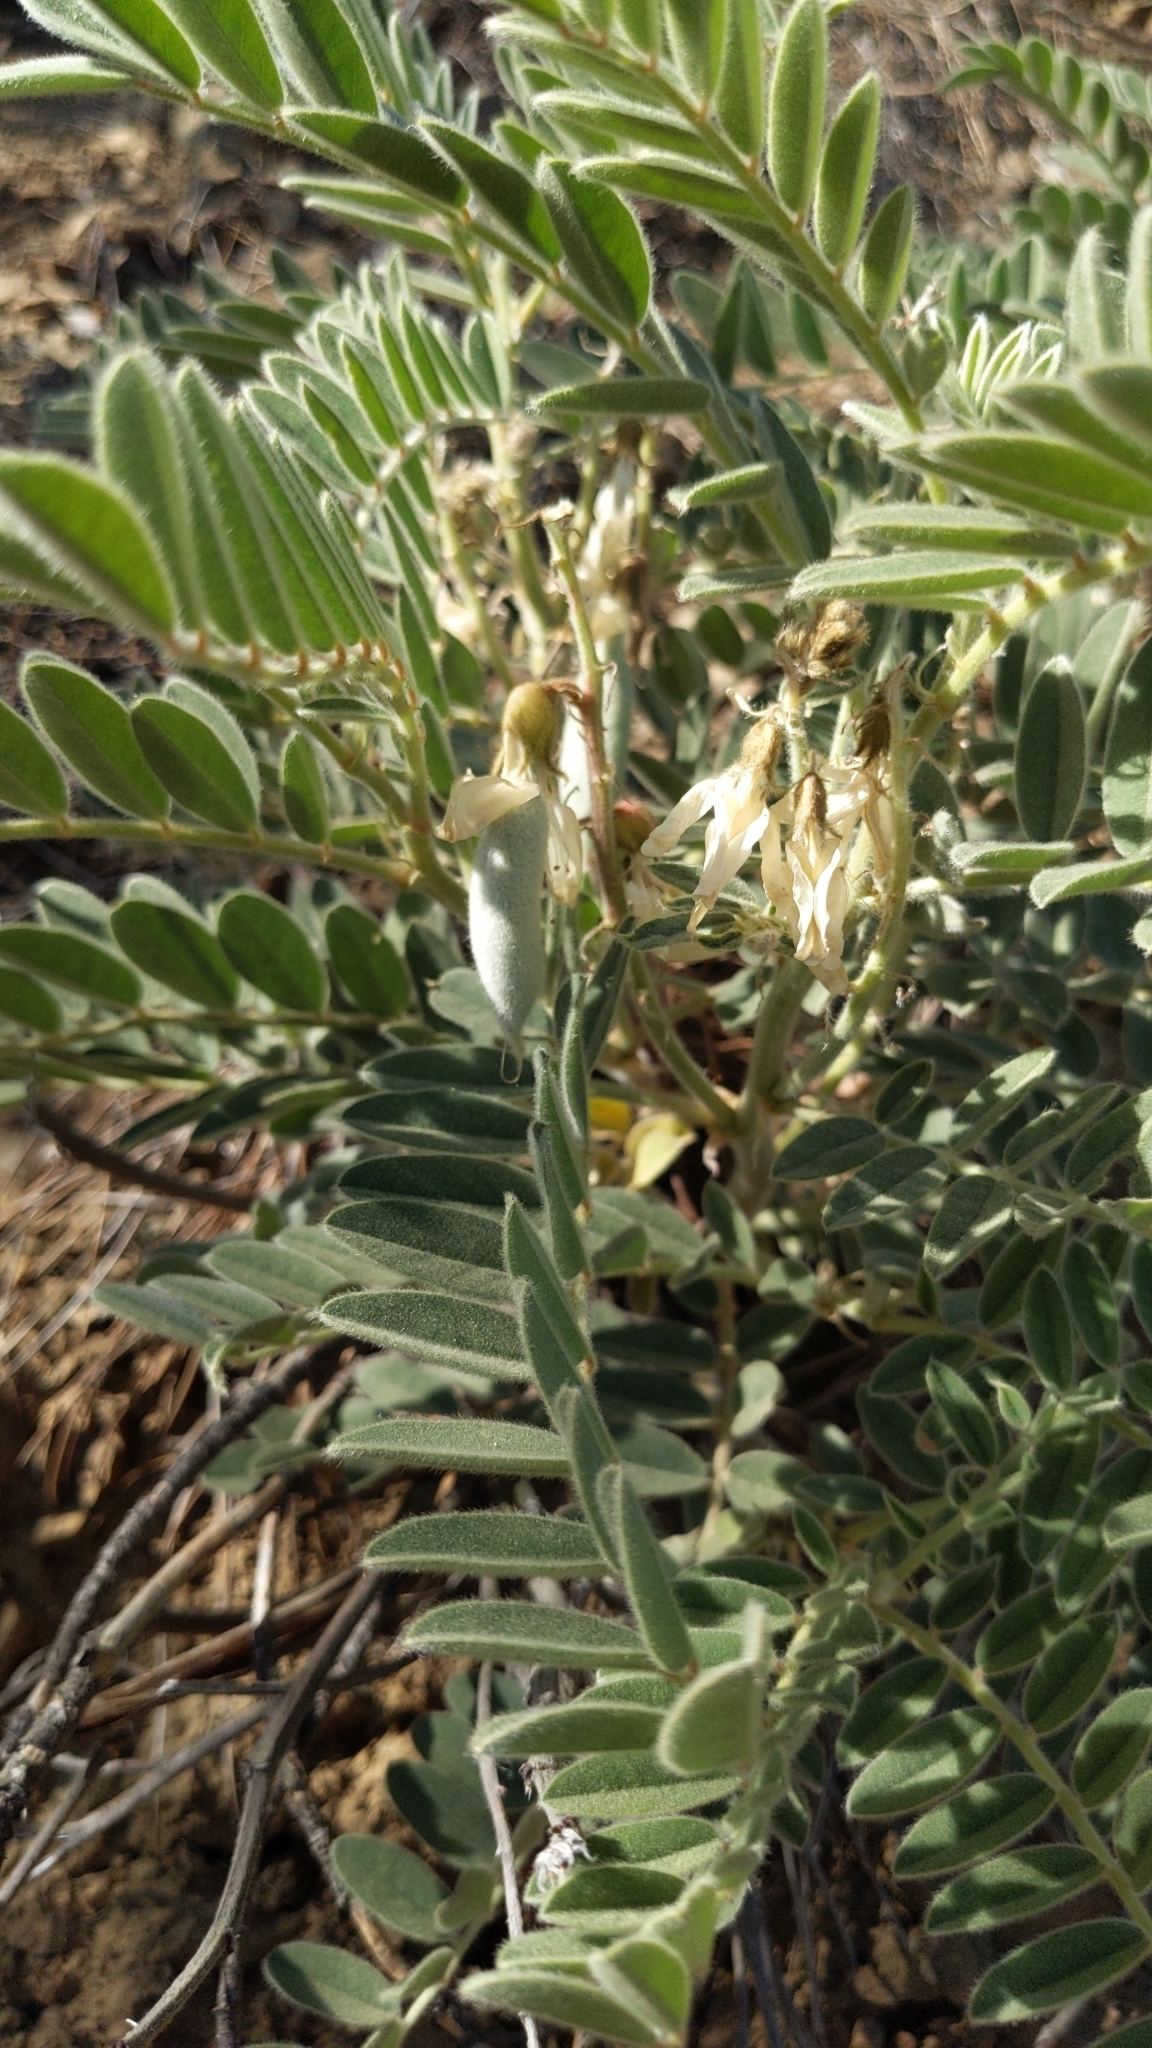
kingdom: Plantae
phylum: Tracheophyta
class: Magnoliopsida
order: Fabales
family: Fabaceae
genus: Erophaca
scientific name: Erophaca baetica
